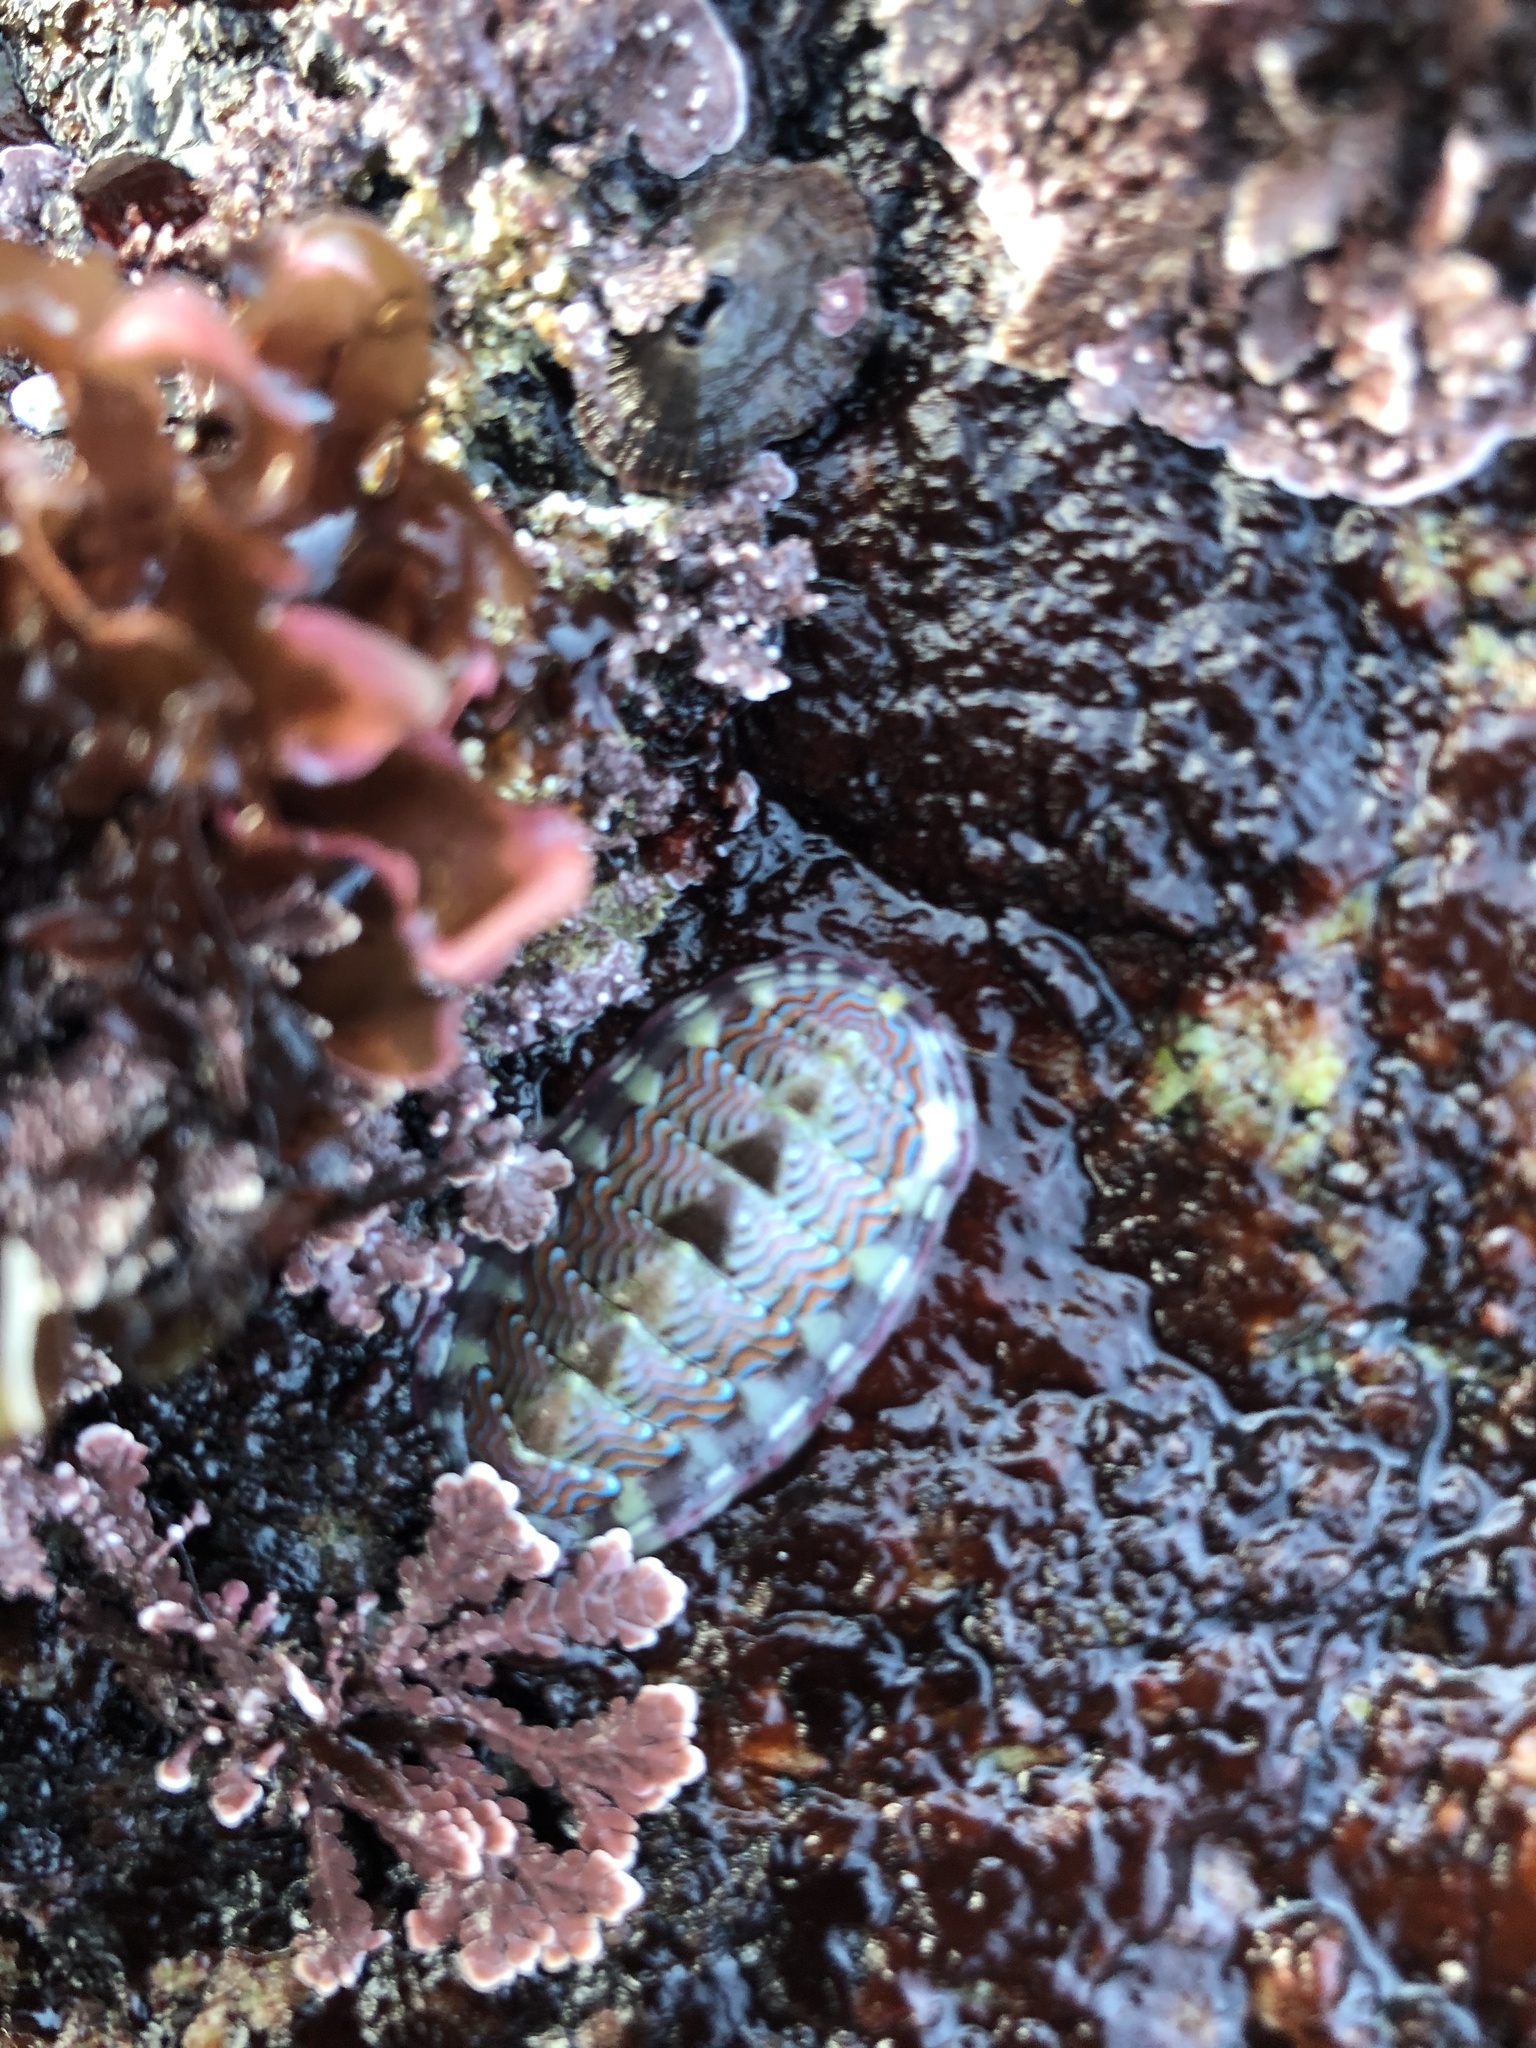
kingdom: Animalia
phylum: Mollusca
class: Polyplacophora
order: Chitonida
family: Tonicellidae
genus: Tonicella
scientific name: Tonicella lokii
